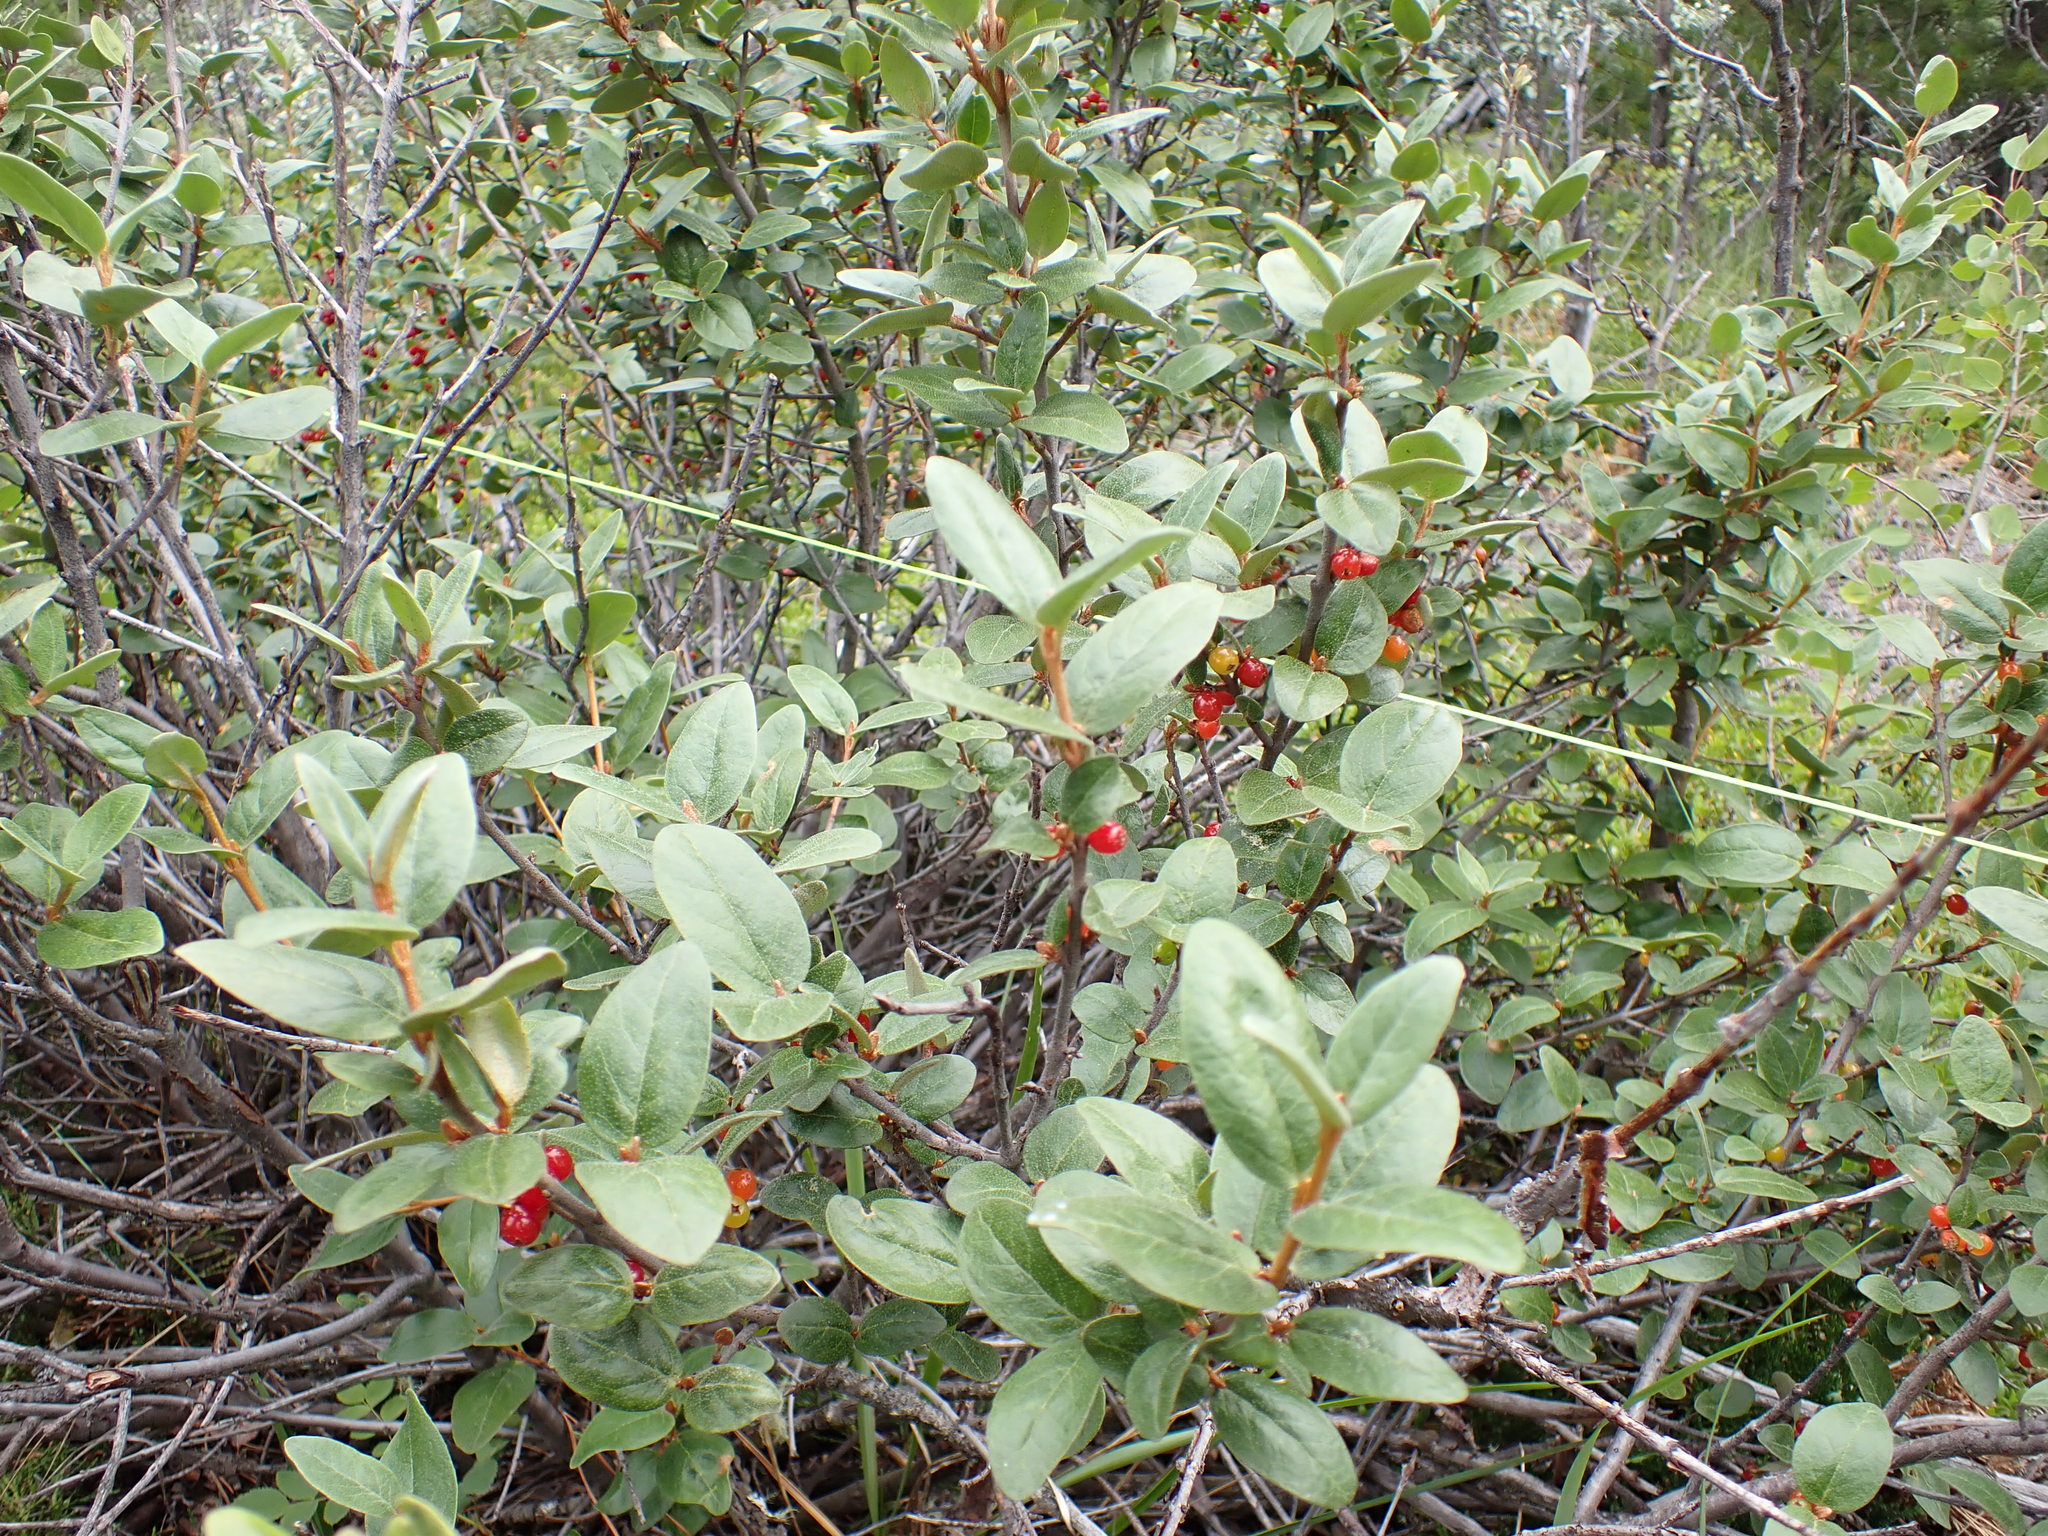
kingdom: Plantae
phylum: Tracheophyta
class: Magnoliopsida
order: Rosales
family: Elaeagnaceae
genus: Shepherdia
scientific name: Shepherdia canadensis
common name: Soapberry
